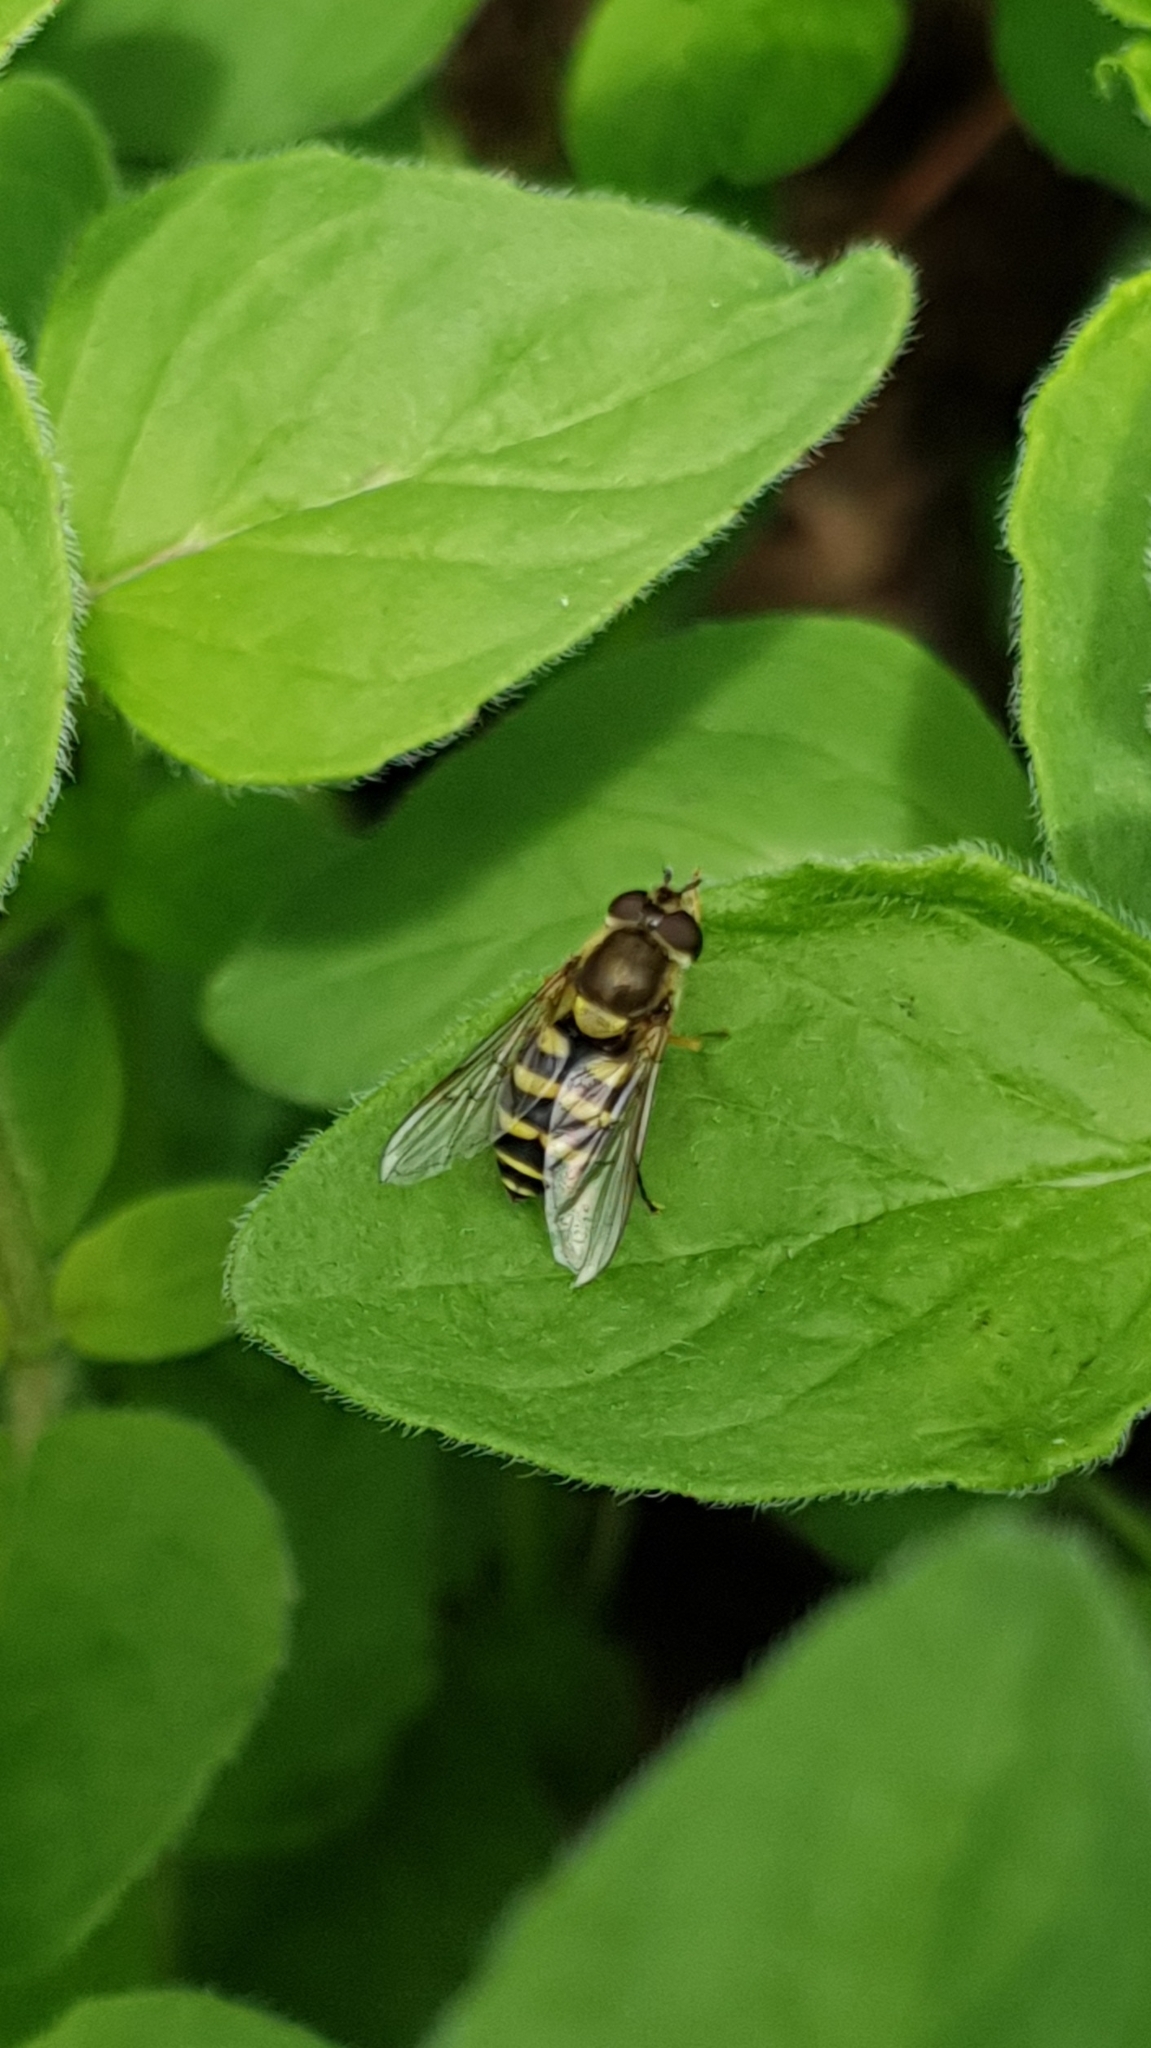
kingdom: Animalia
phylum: Arthropoda
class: Insecta
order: Diptera
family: Syrphidae
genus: Syrphus
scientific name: Syrphus
